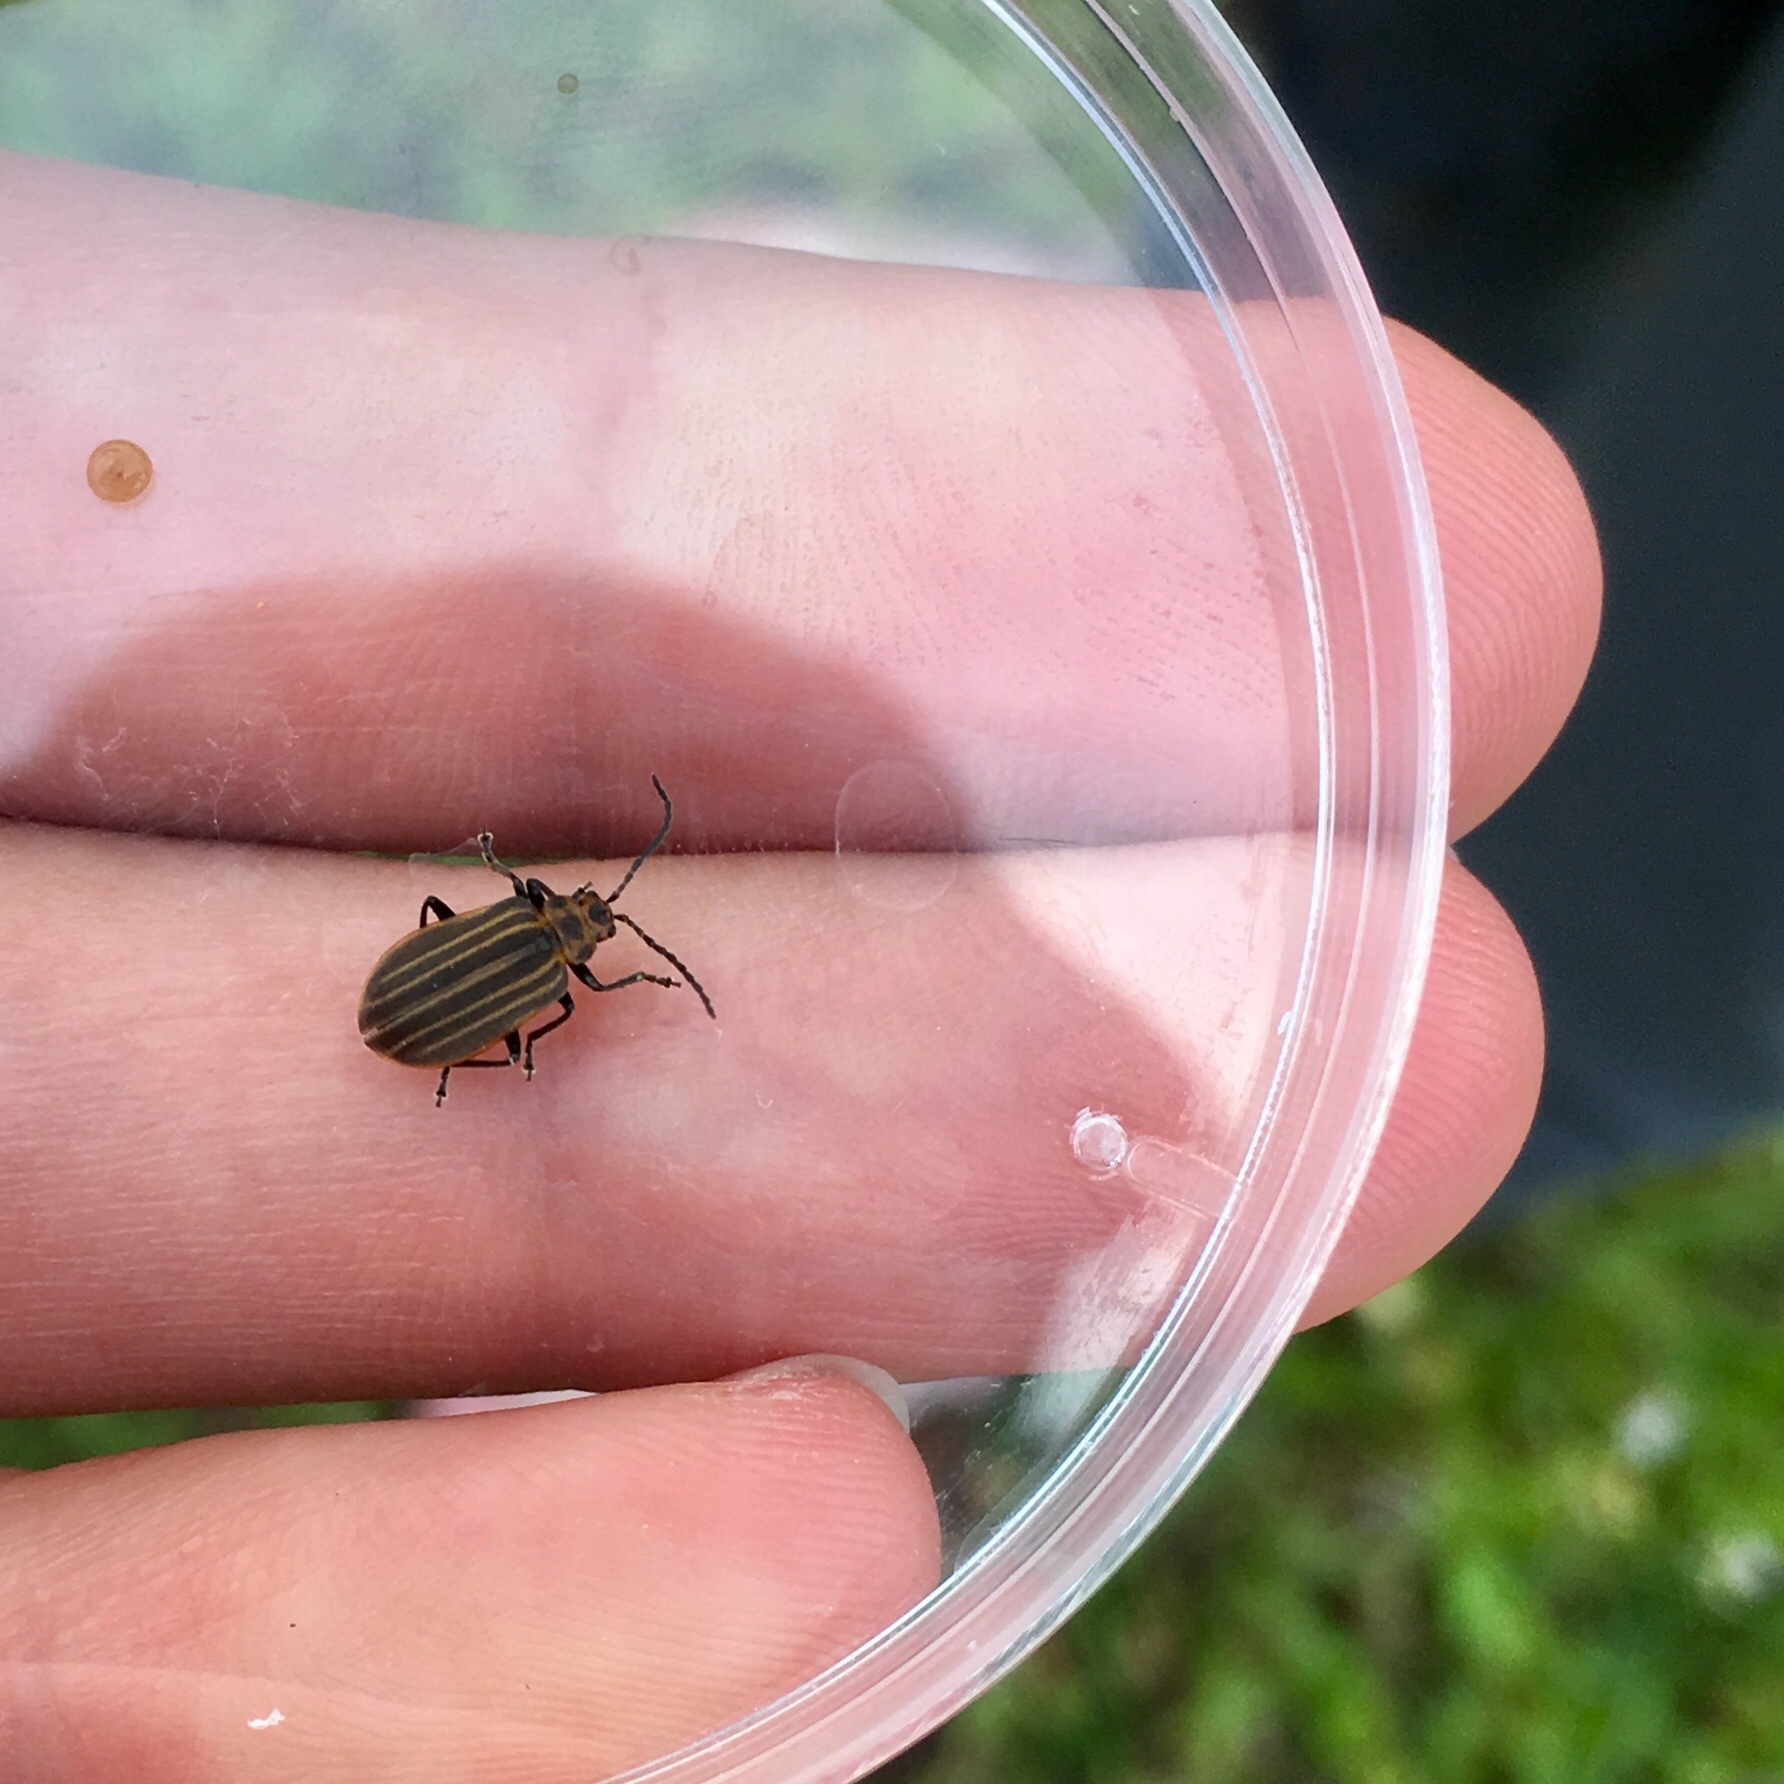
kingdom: Animalia
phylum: Arthropoda
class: Insecta
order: Coleoptera
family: Chrysomelidae
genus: Neolochmaea
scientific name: Neolochmaea dilatipennis
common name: Skeletonizing leaf beetle
